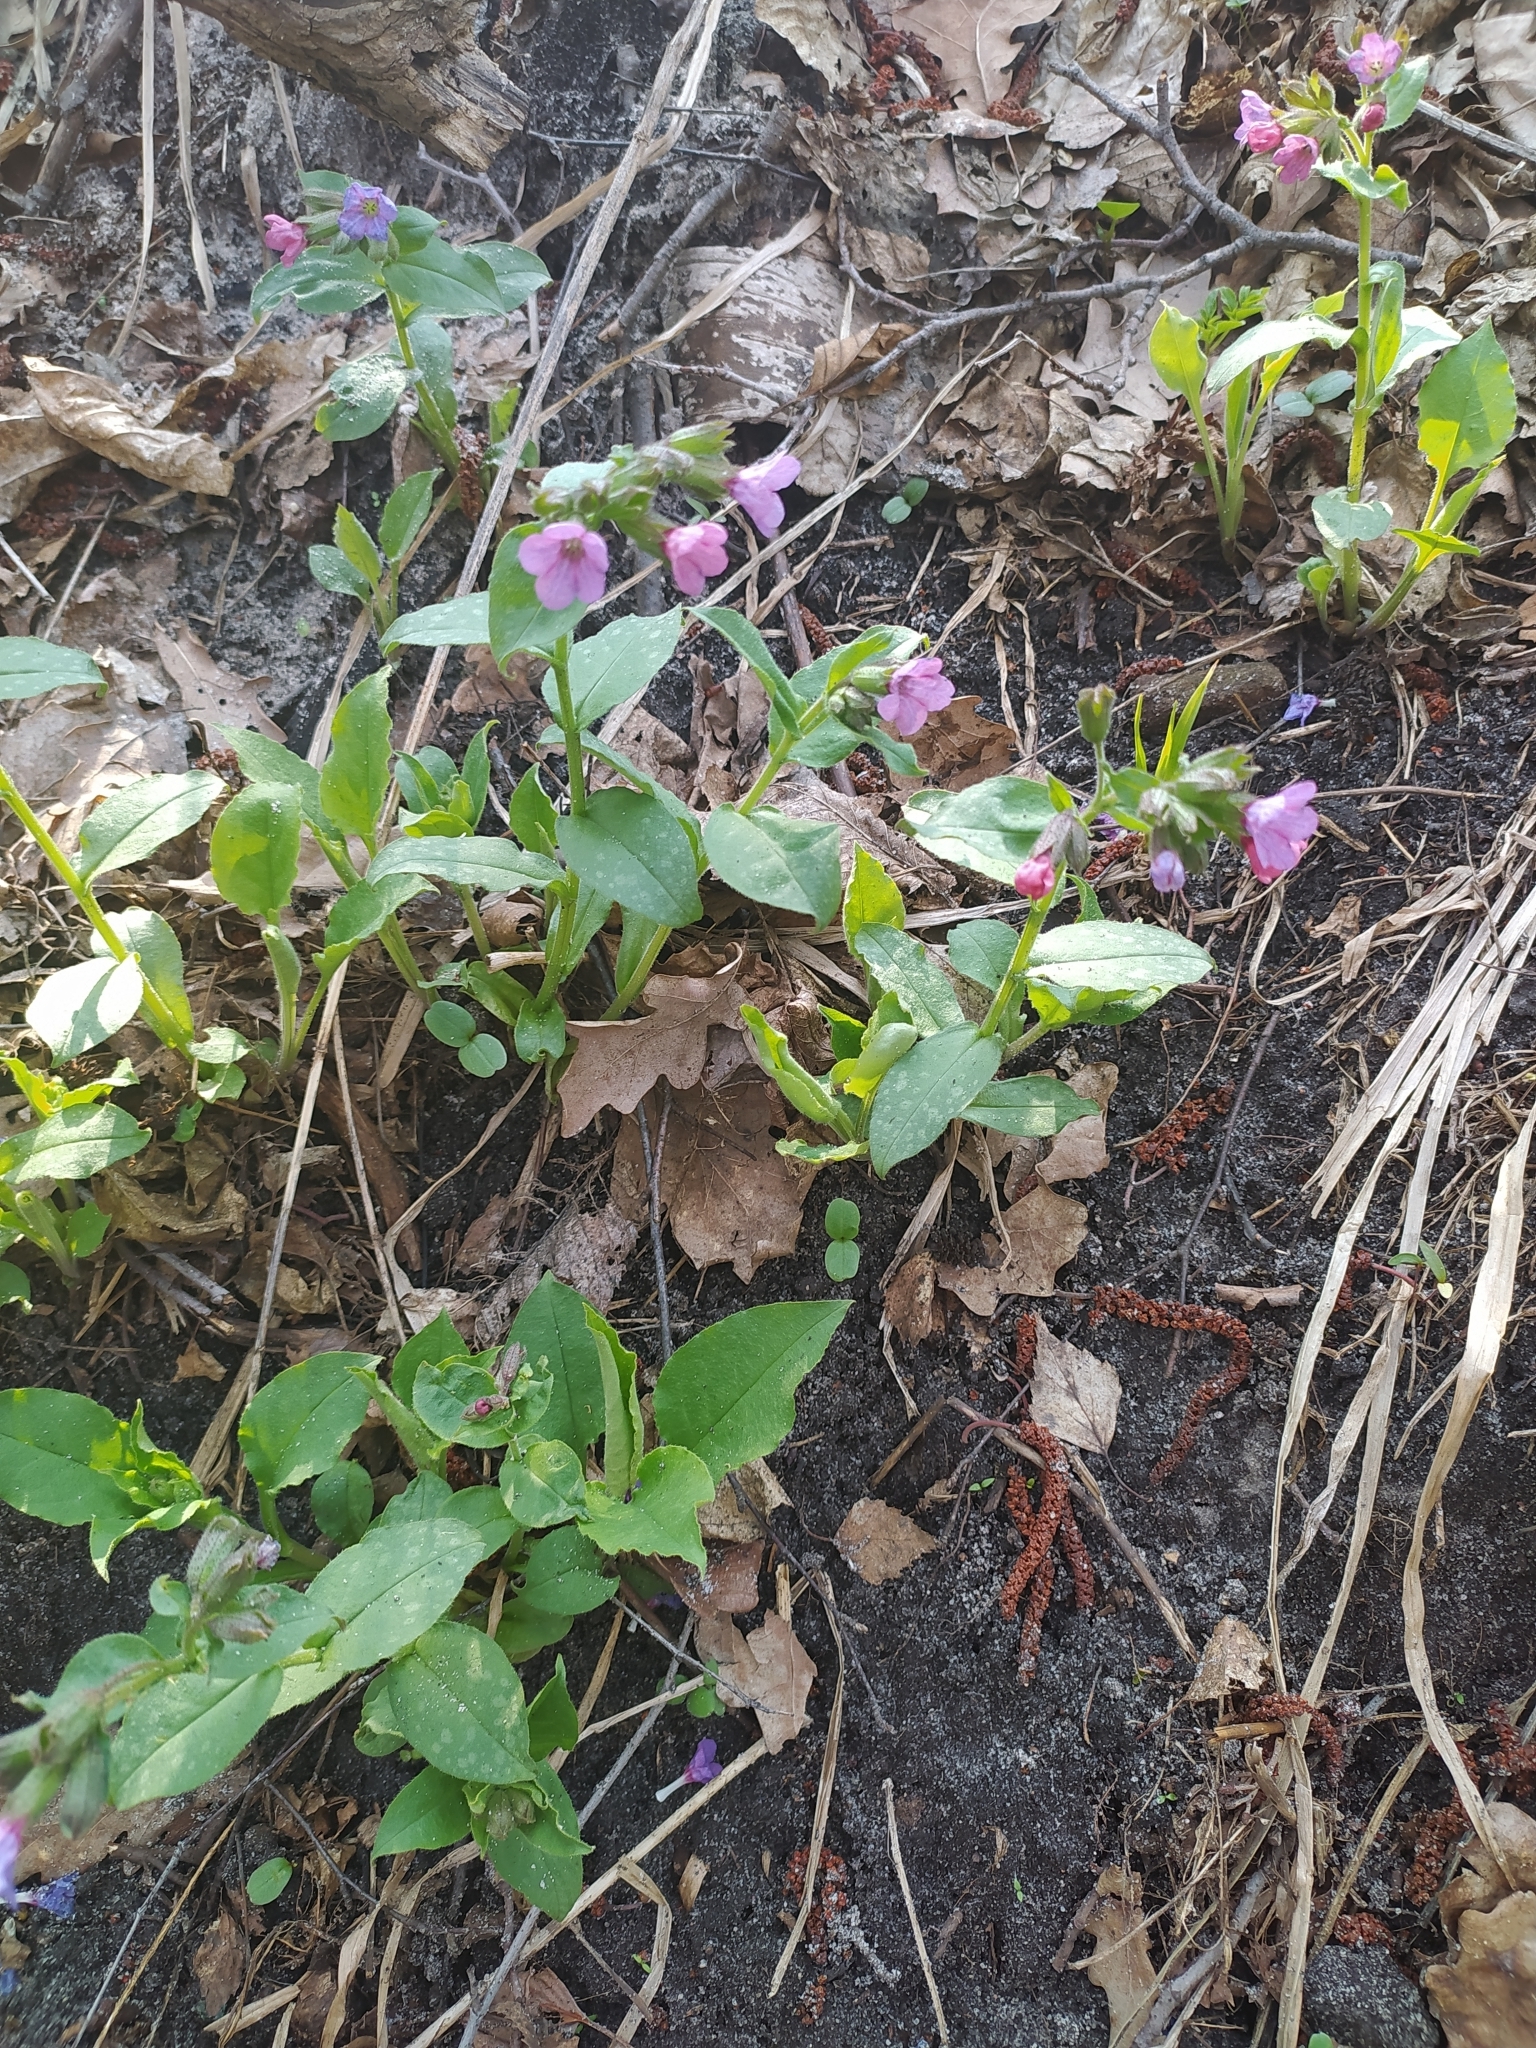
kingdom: Plantae
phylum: Tracheophyta
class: Magnoliopsida
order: Boraginales
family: Boraginaceae
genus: Pulmonaria
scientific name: Pulmonaria obscura
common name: Suffolk lungwort
